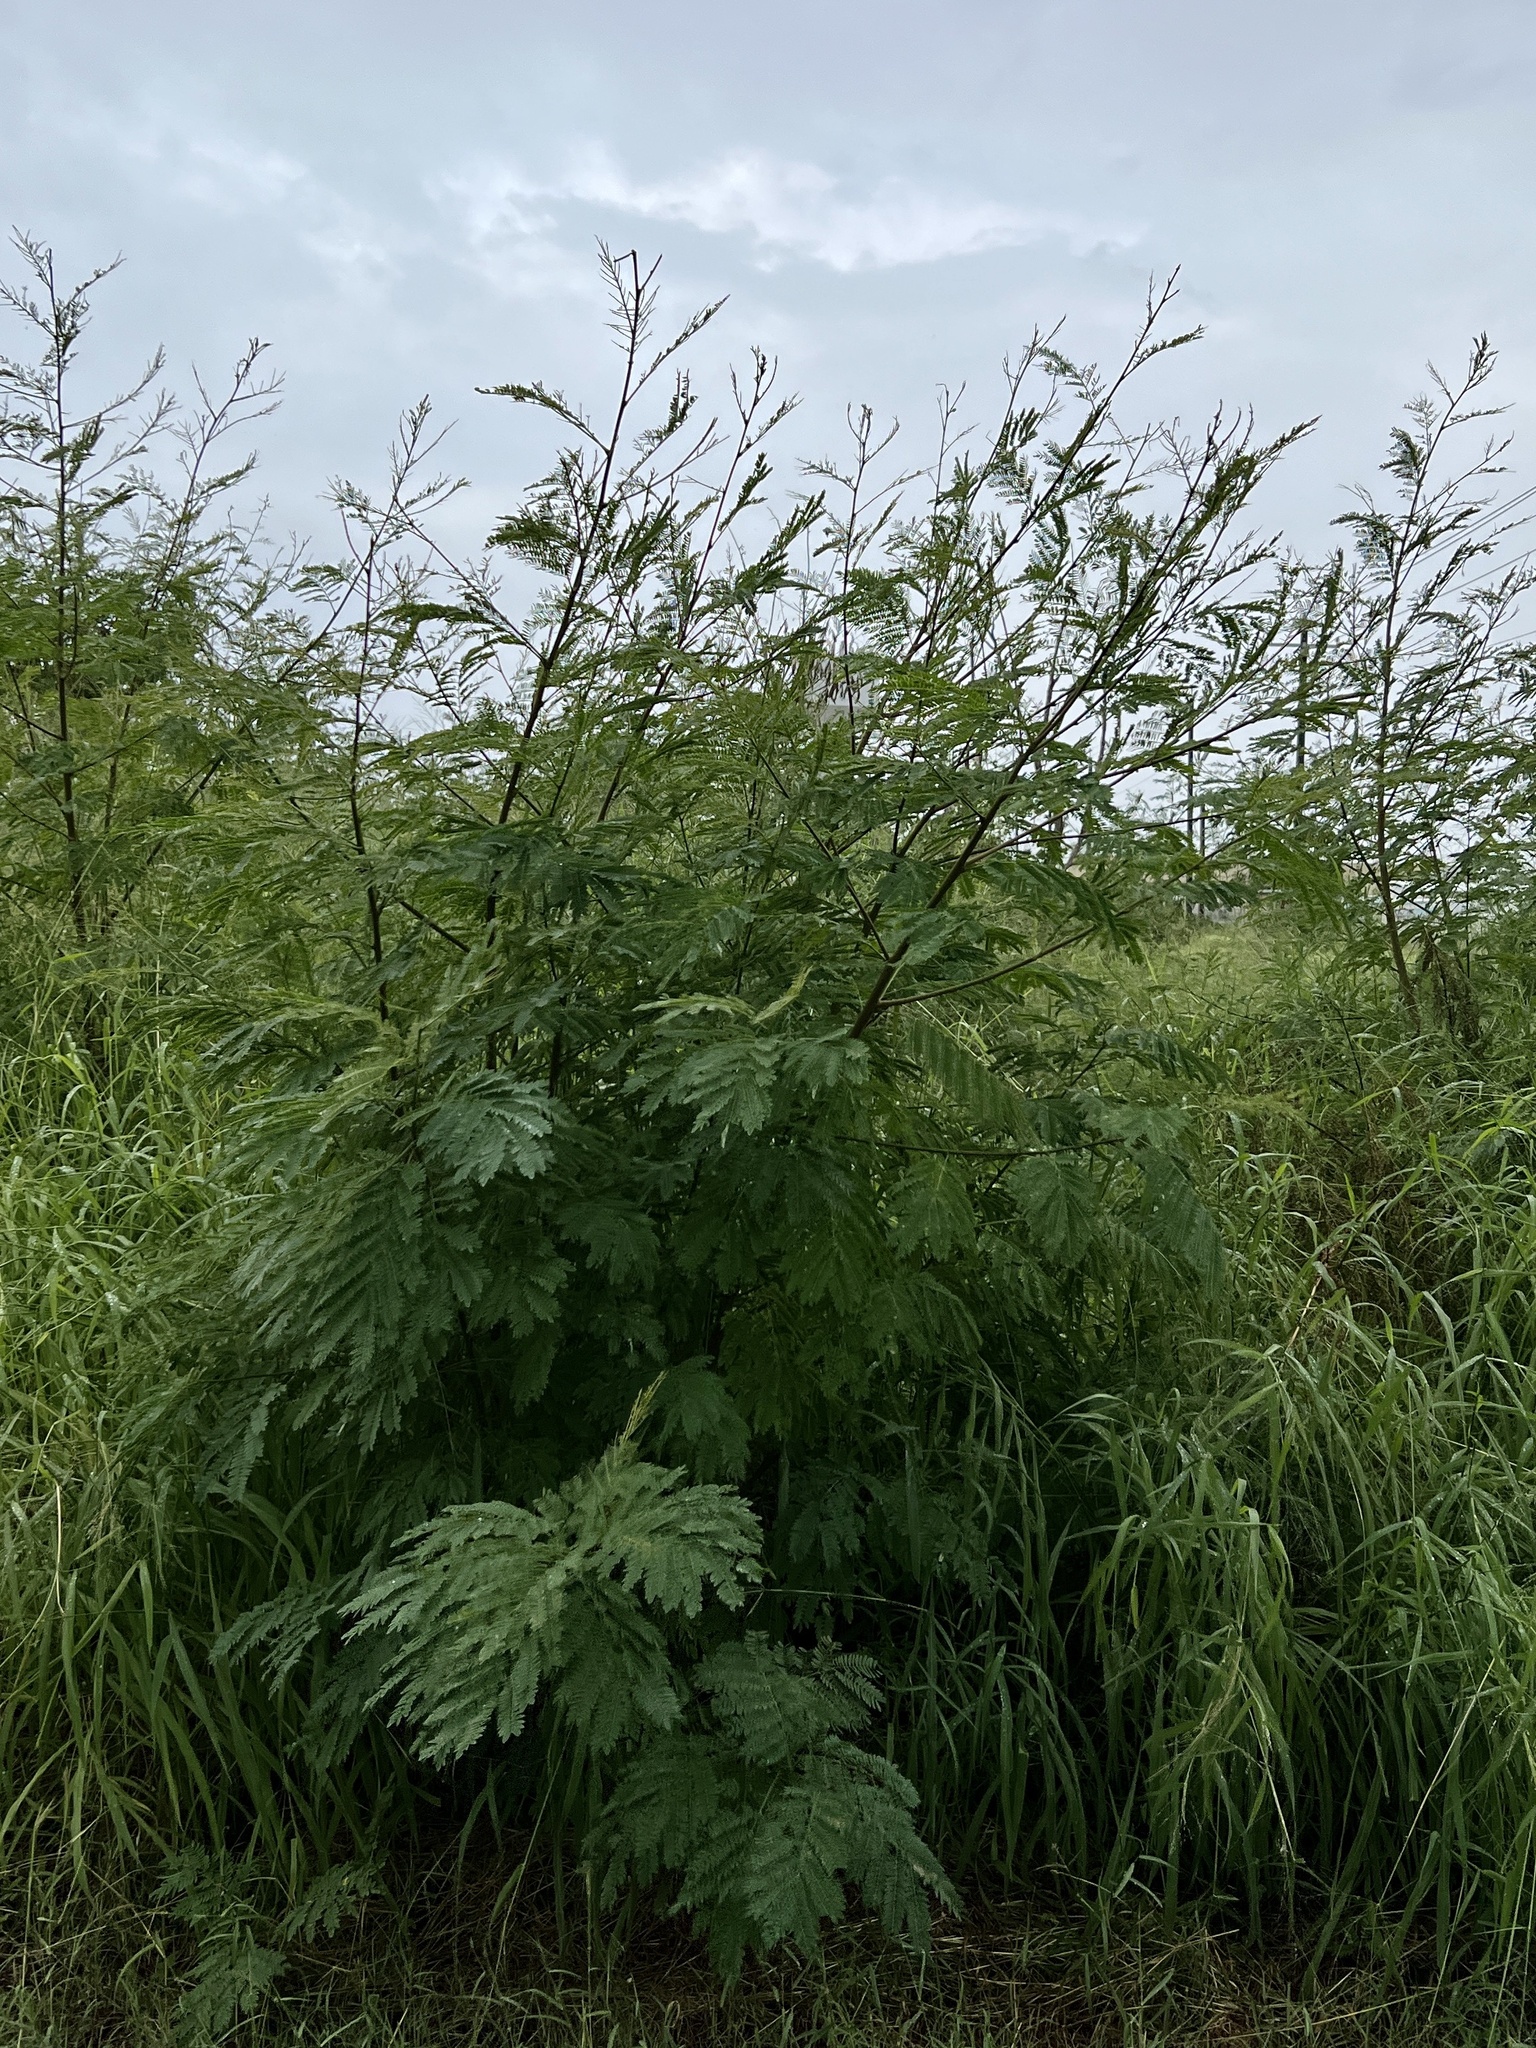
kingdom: Plantae
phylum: Tracheophyta
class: Magnoliopsida
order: Fabales
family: Fabaceae
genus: Leucaena
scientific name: Leucaena leucocephala
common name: White leadtree
